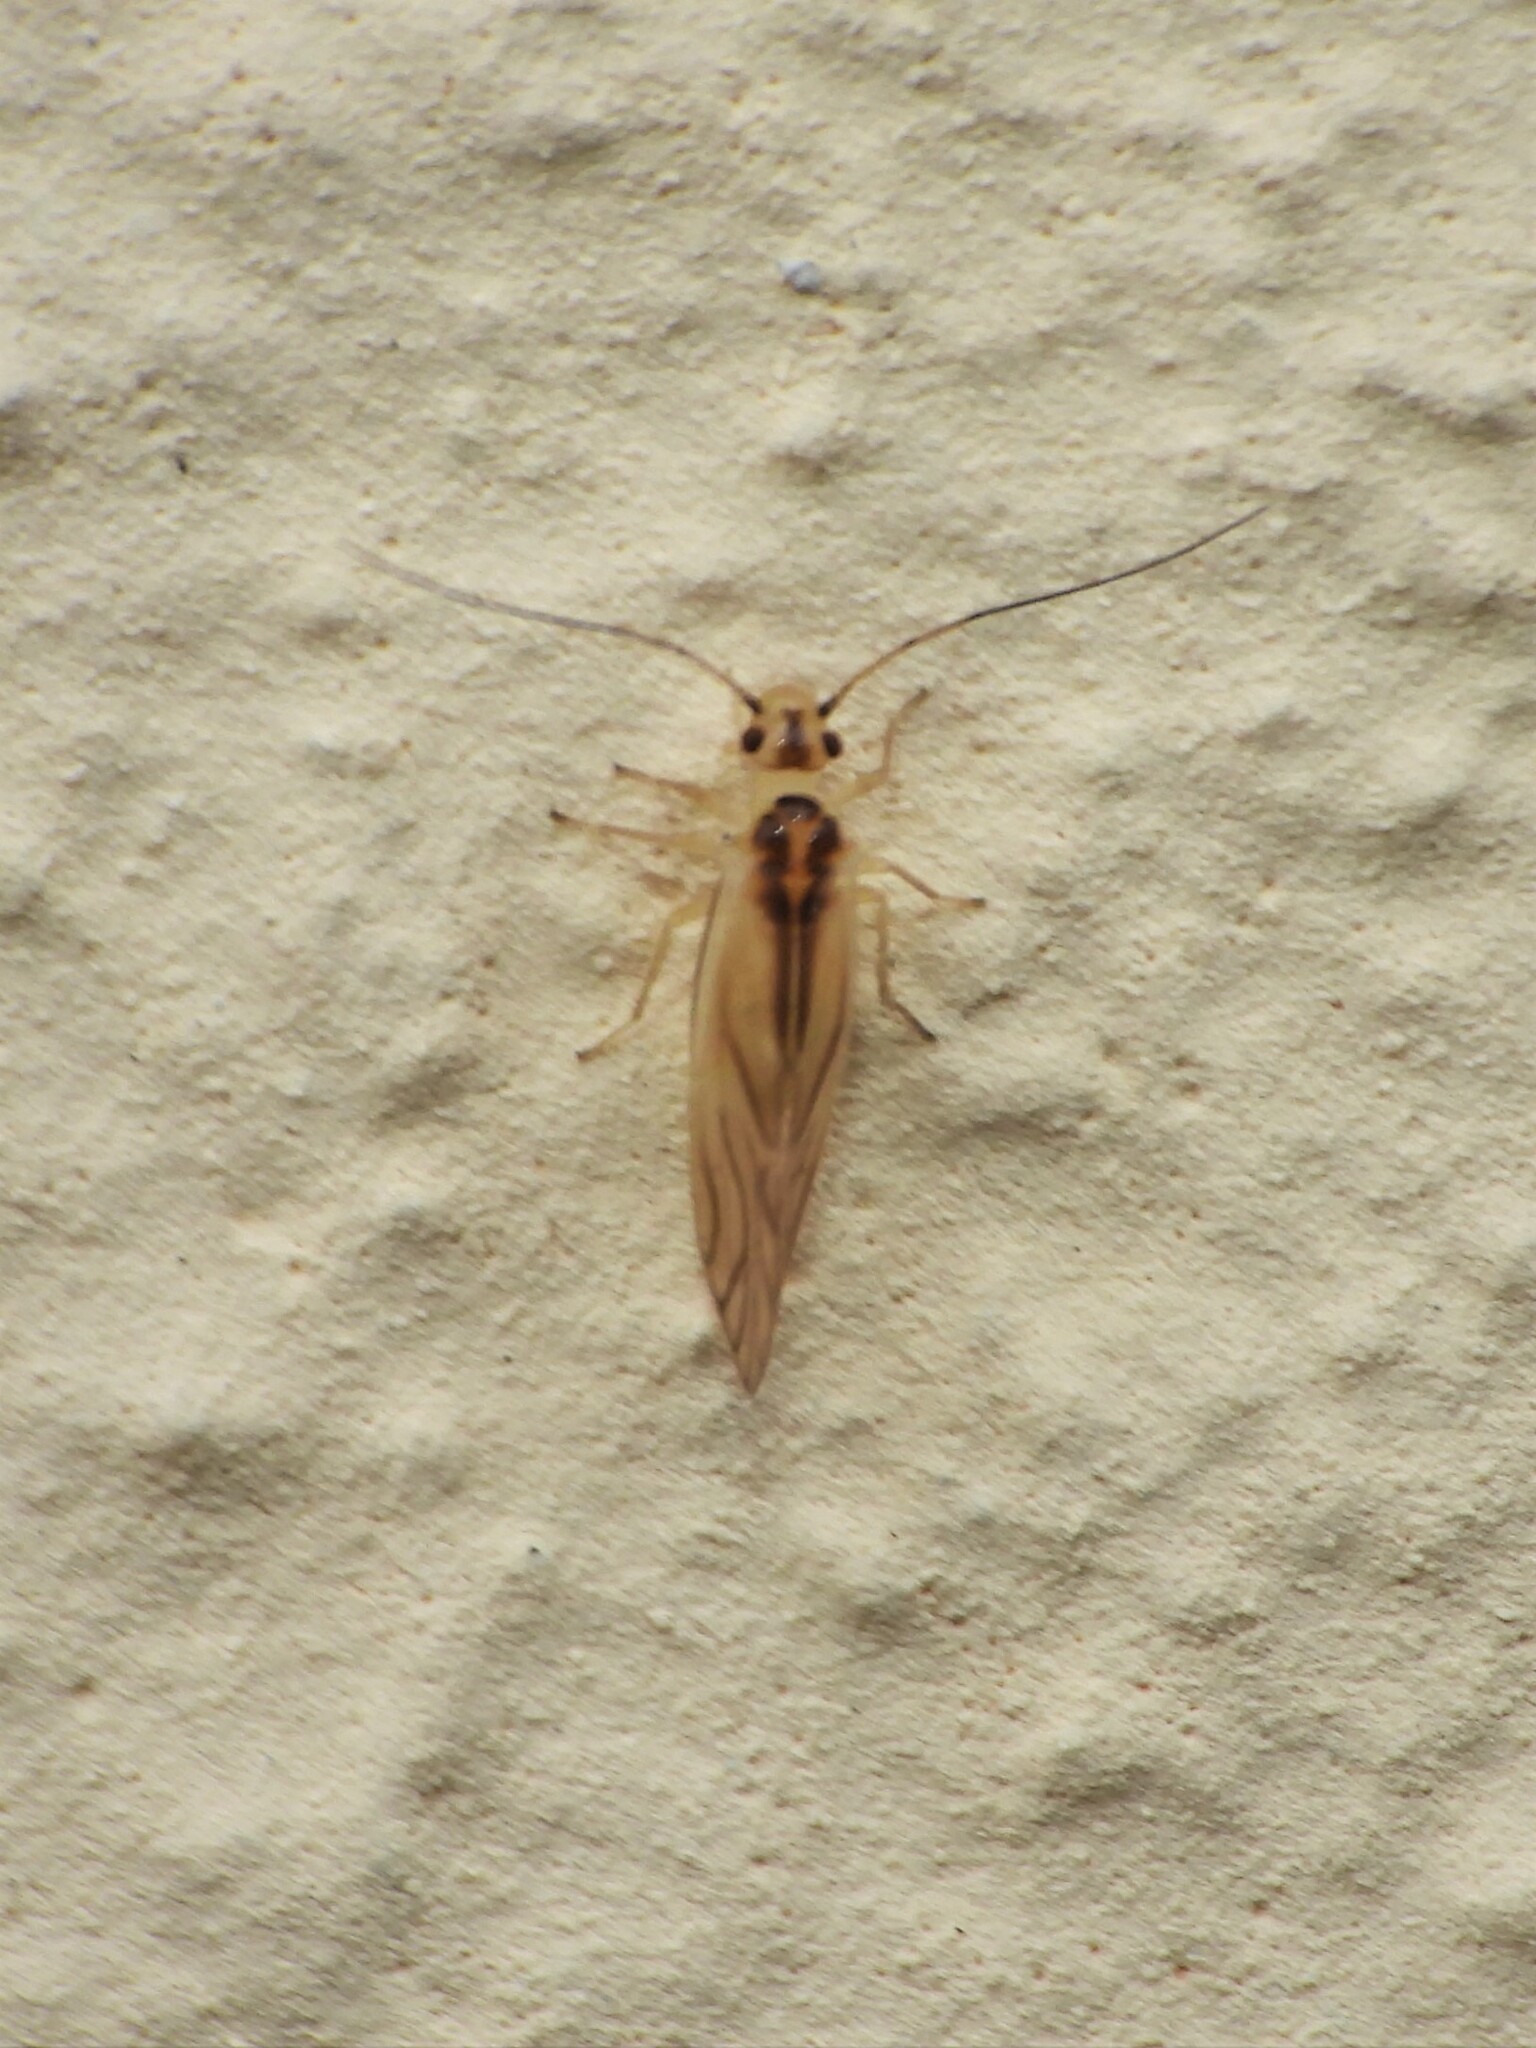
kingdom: Animalia
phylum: Arthropoda
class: Insecta
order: Psocodea
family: Caeciliusidae
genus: Valenzuela
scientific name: Valenzuela flavidus
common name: Yellow barklouse
